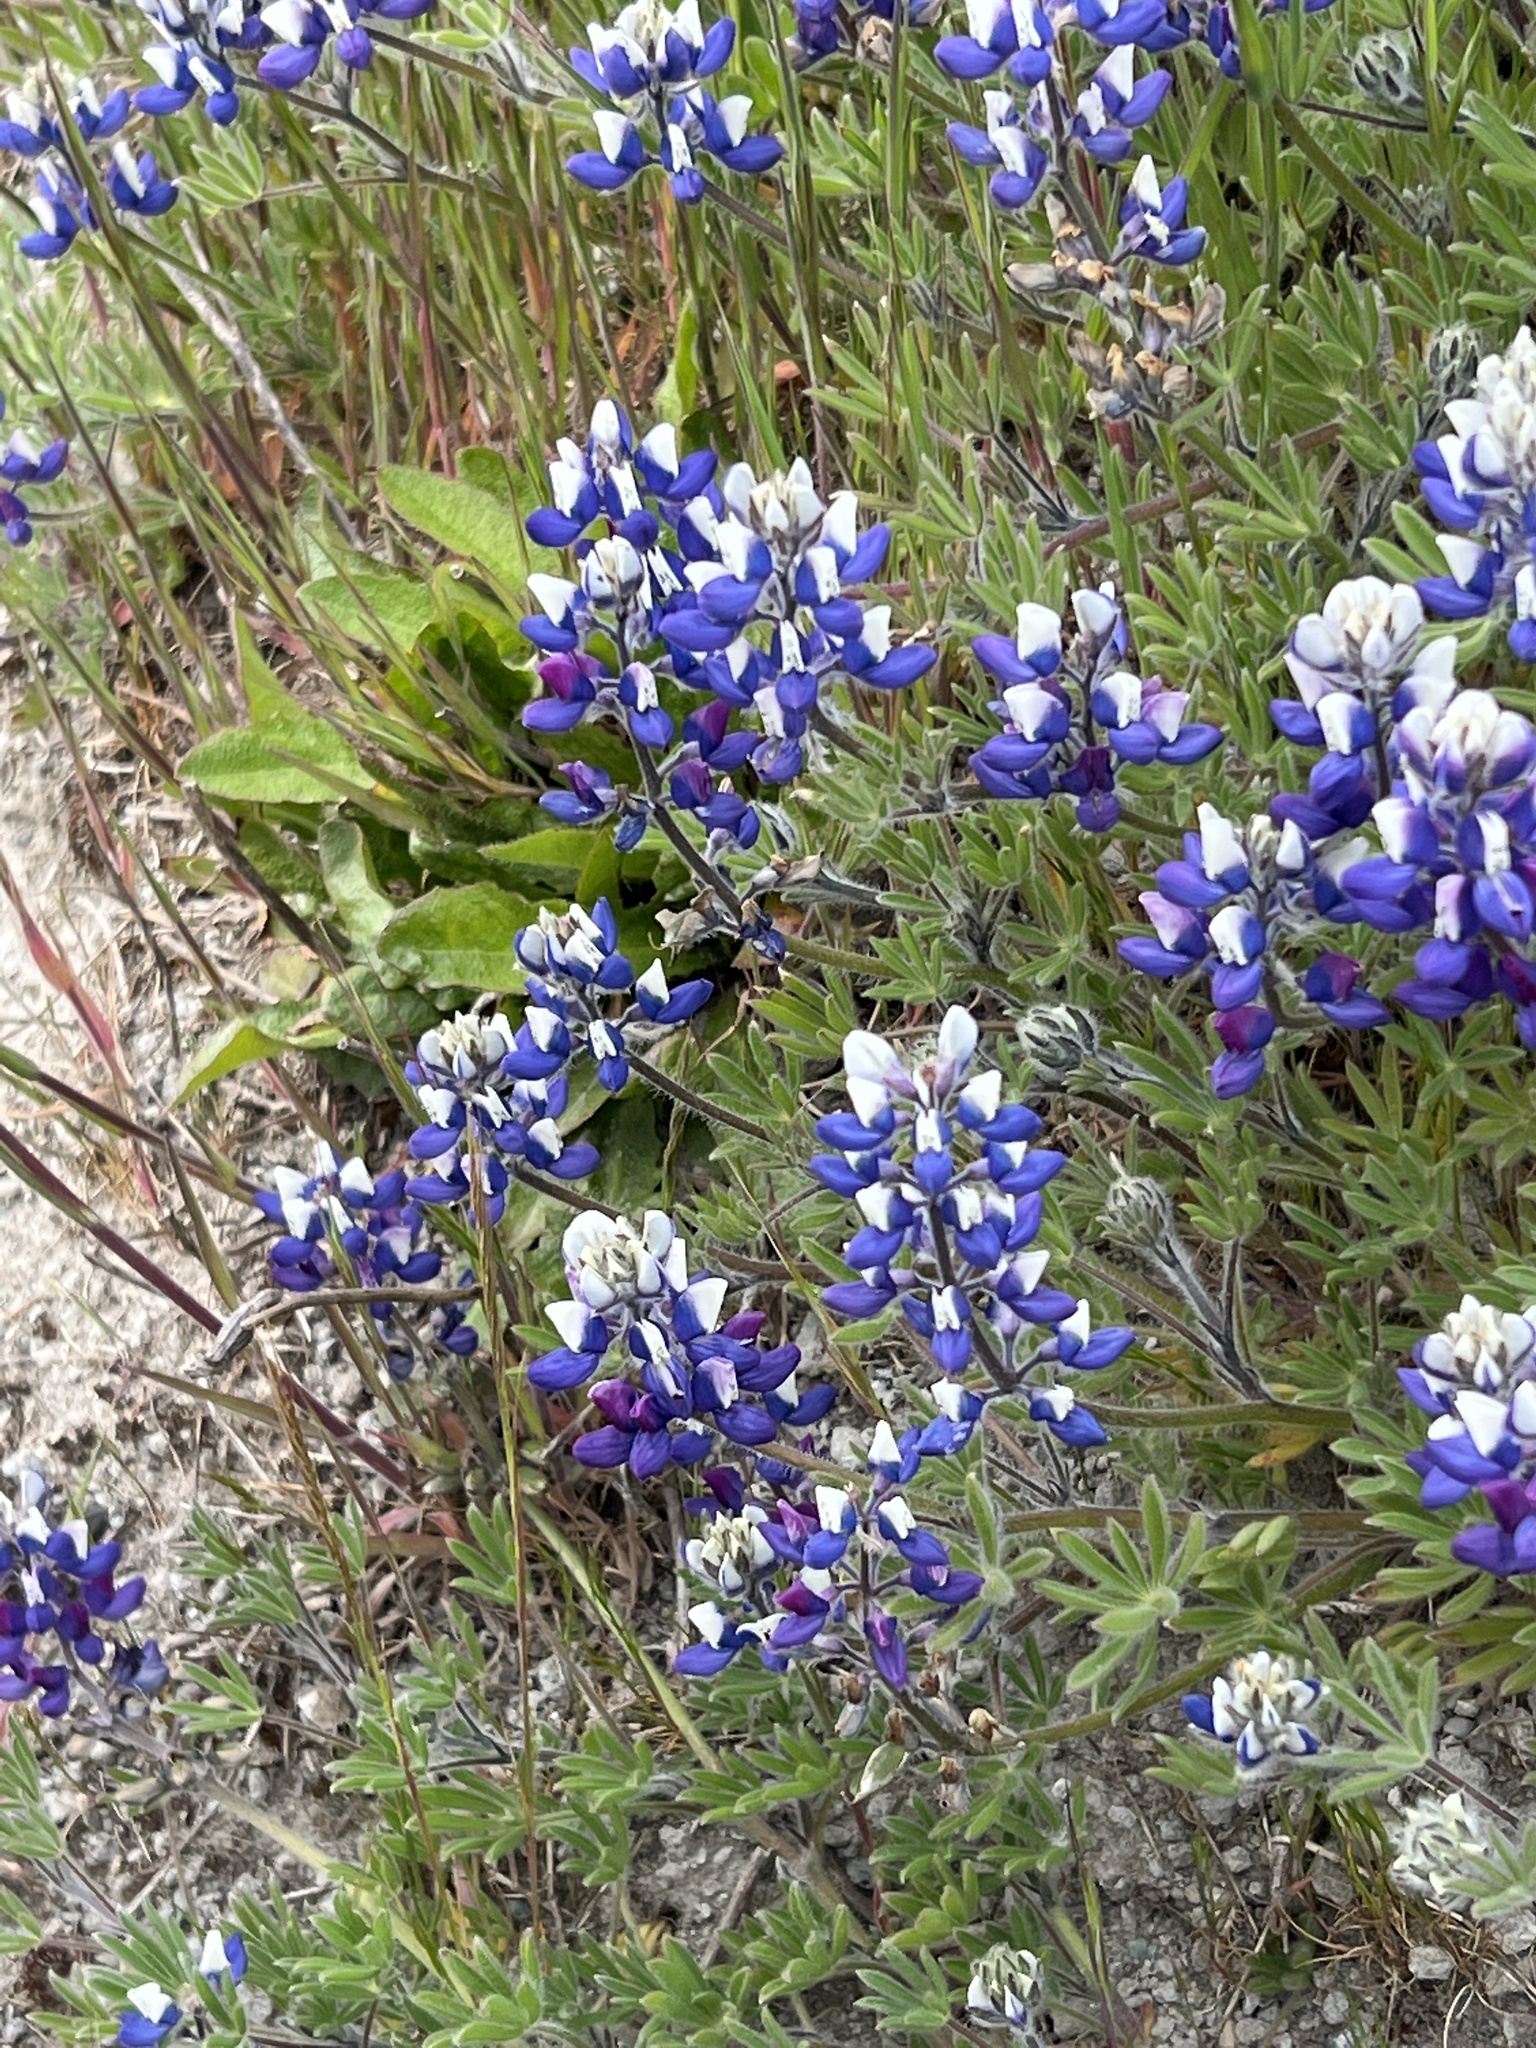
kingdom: Plantae
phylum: Tracheophyta
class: Magnoliopsida
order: Fabales
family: Fabaceae
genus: Lupinus
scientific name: Lupinus bicolor
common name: Miniature lupine
